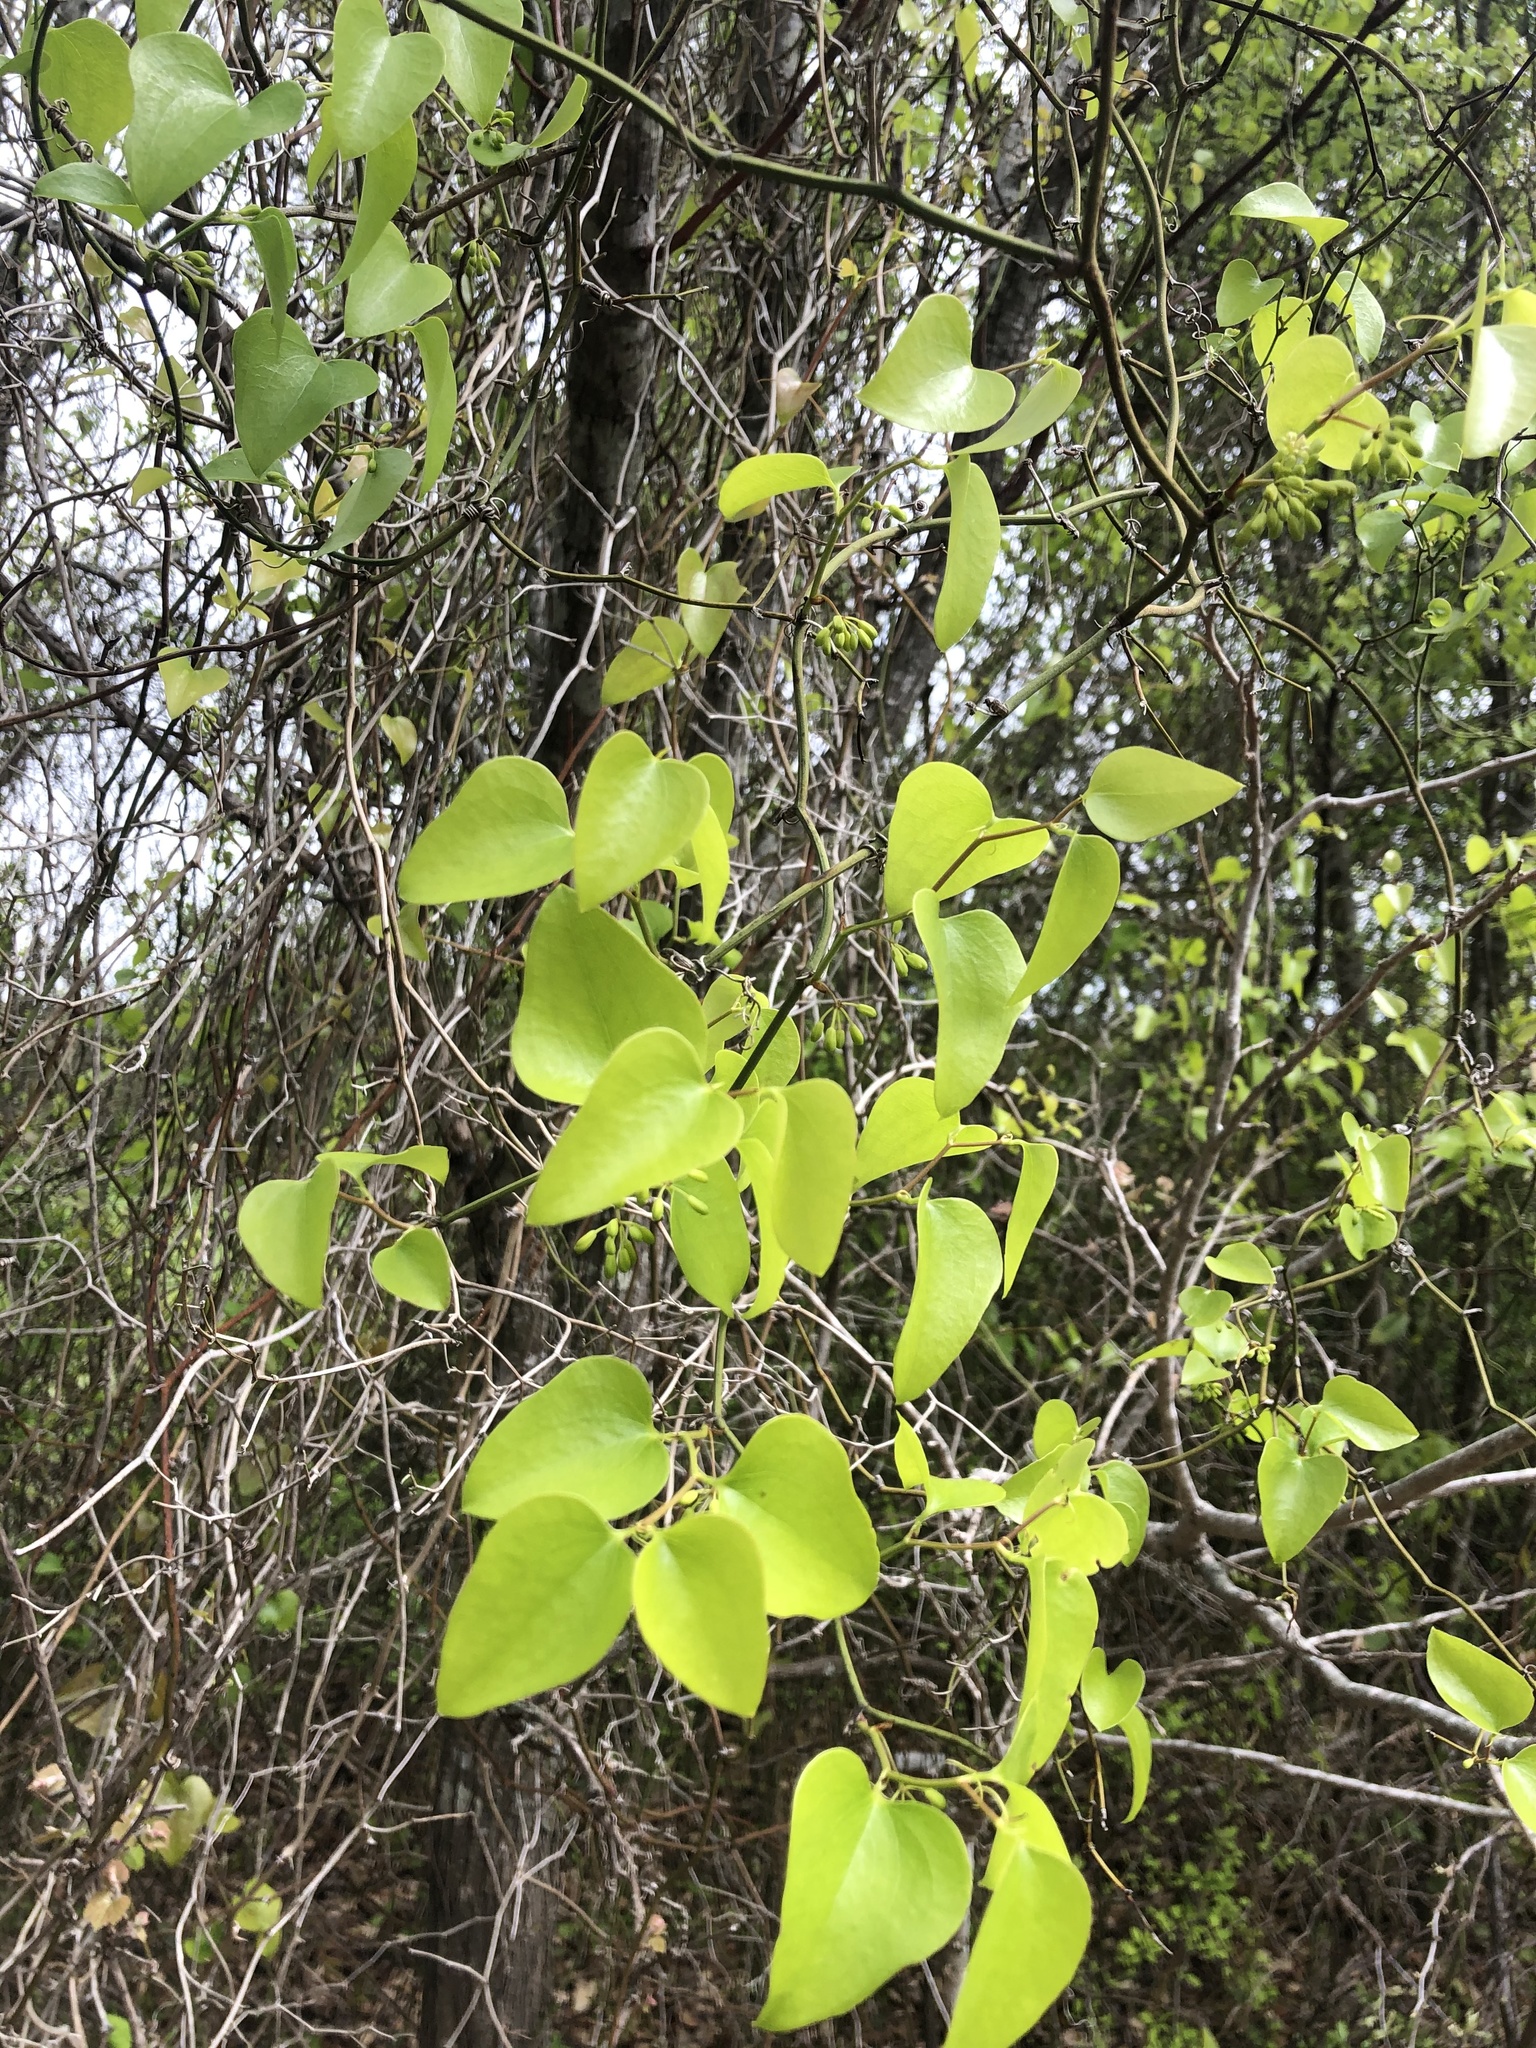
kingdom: Plantae
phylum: Tracheophyta
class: Liliopsida
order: Liliales
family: Smilacaceae
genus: Smilax
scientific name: Smilax bona-nox
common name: Catbrier
